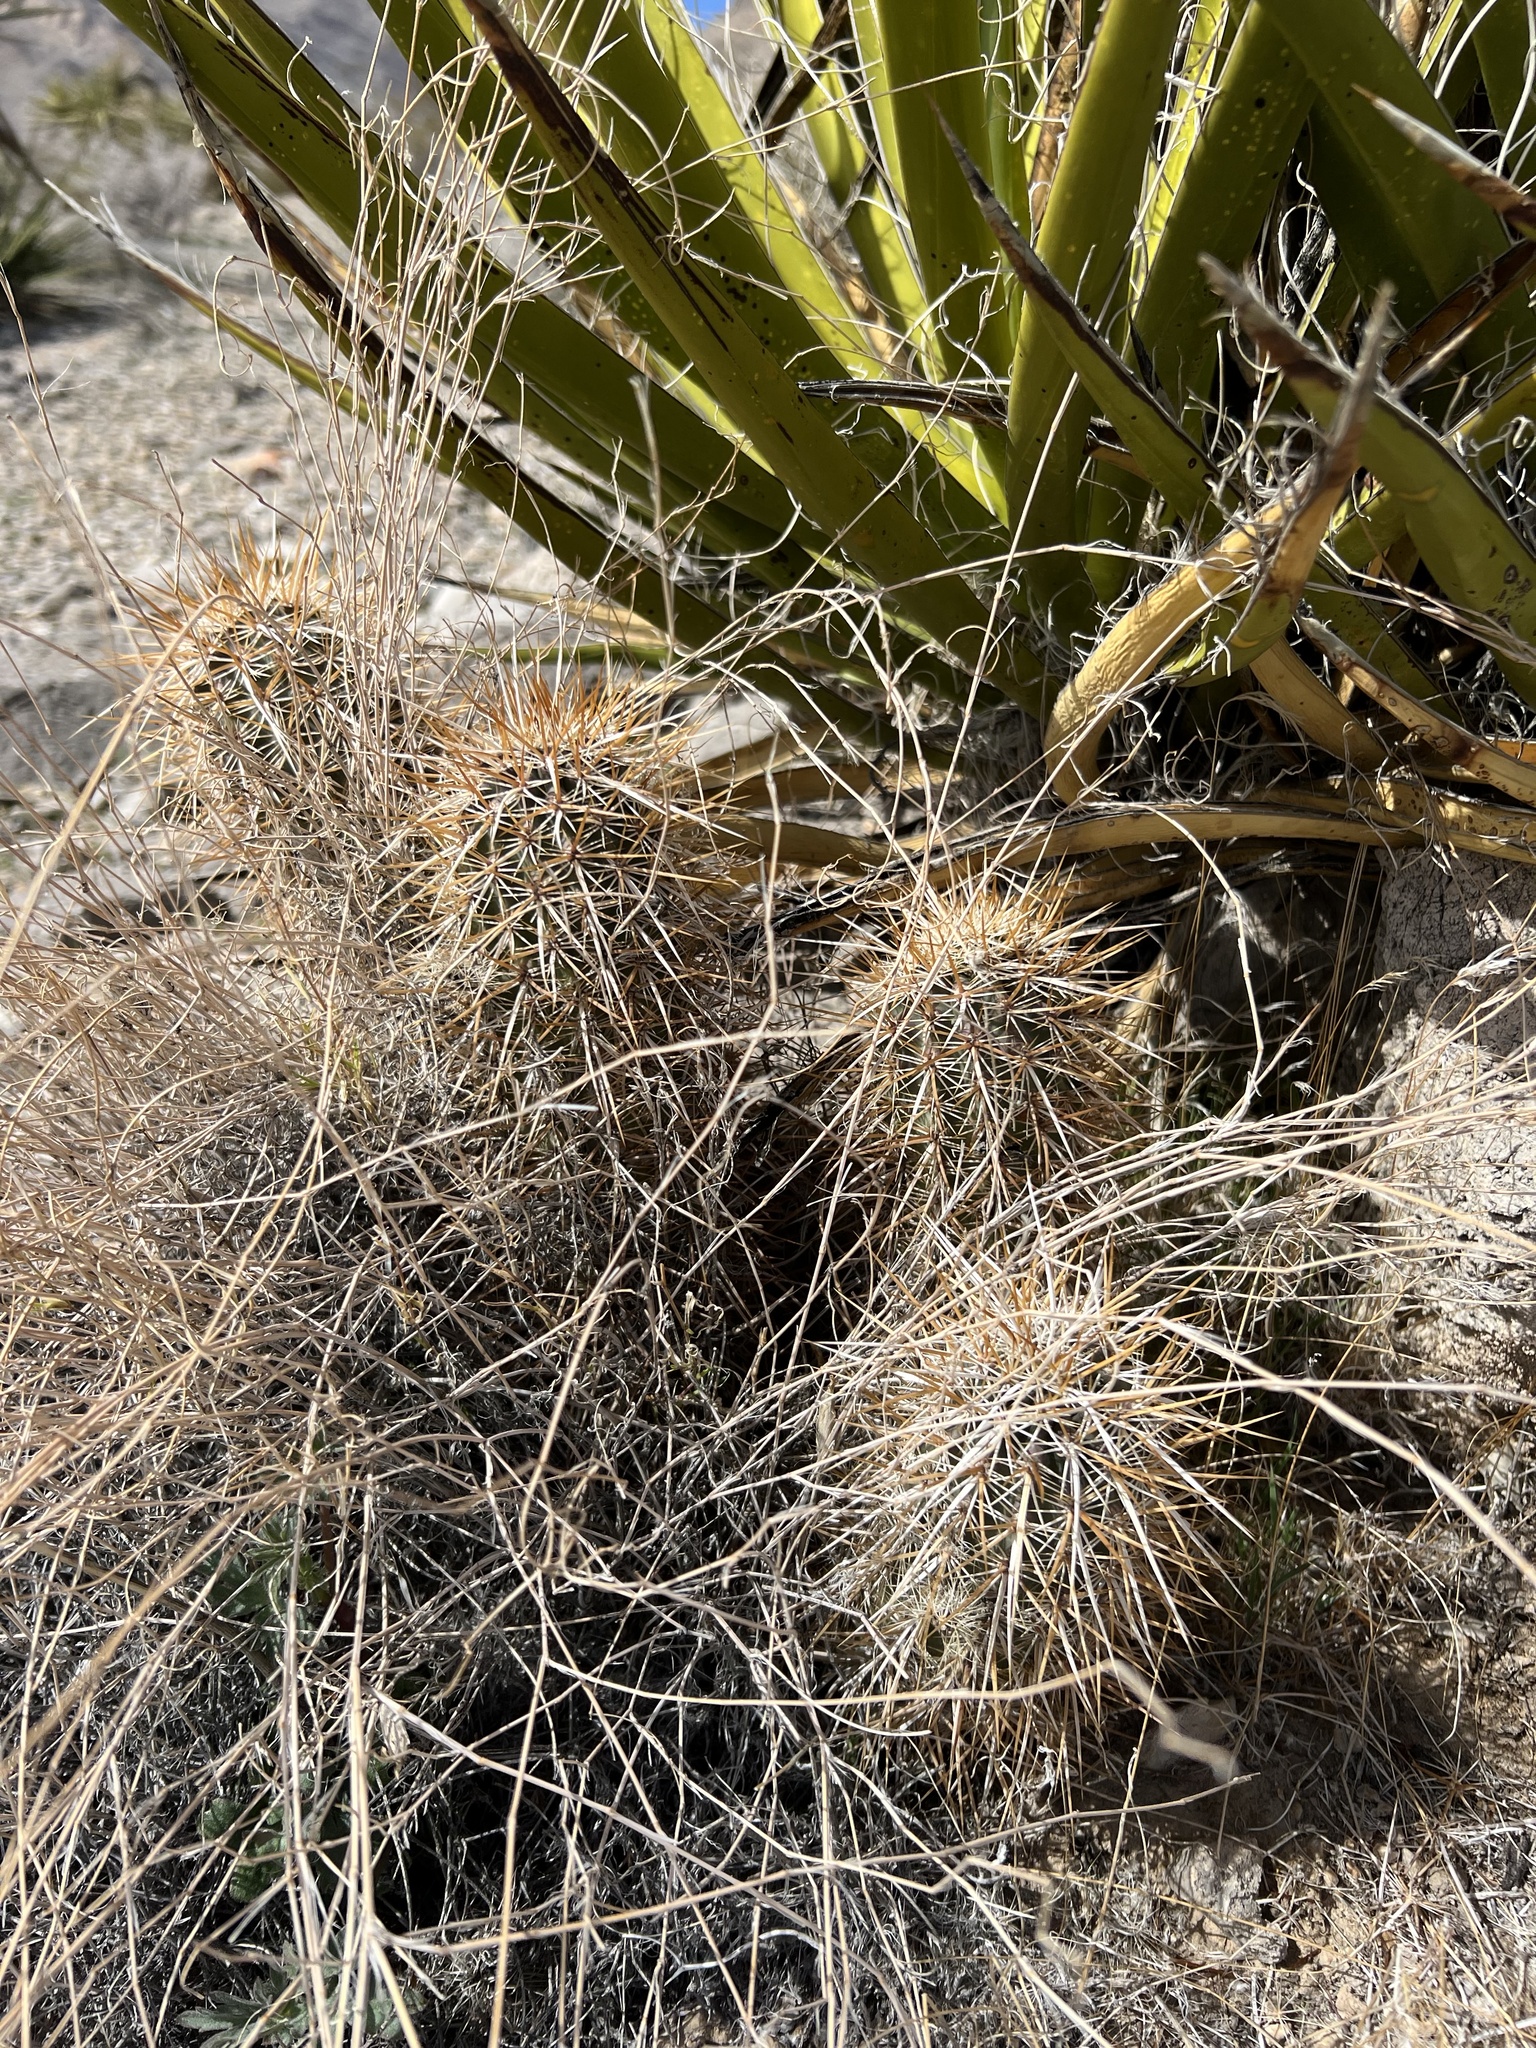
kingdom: Plantae
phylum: Tracheophyta
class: Magnoliopsida
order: Caryophyllales
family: Cactaceae
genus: Echinocereus
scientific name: Echinocereus engelmannii
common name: Engelmann's hedgehog cactus
